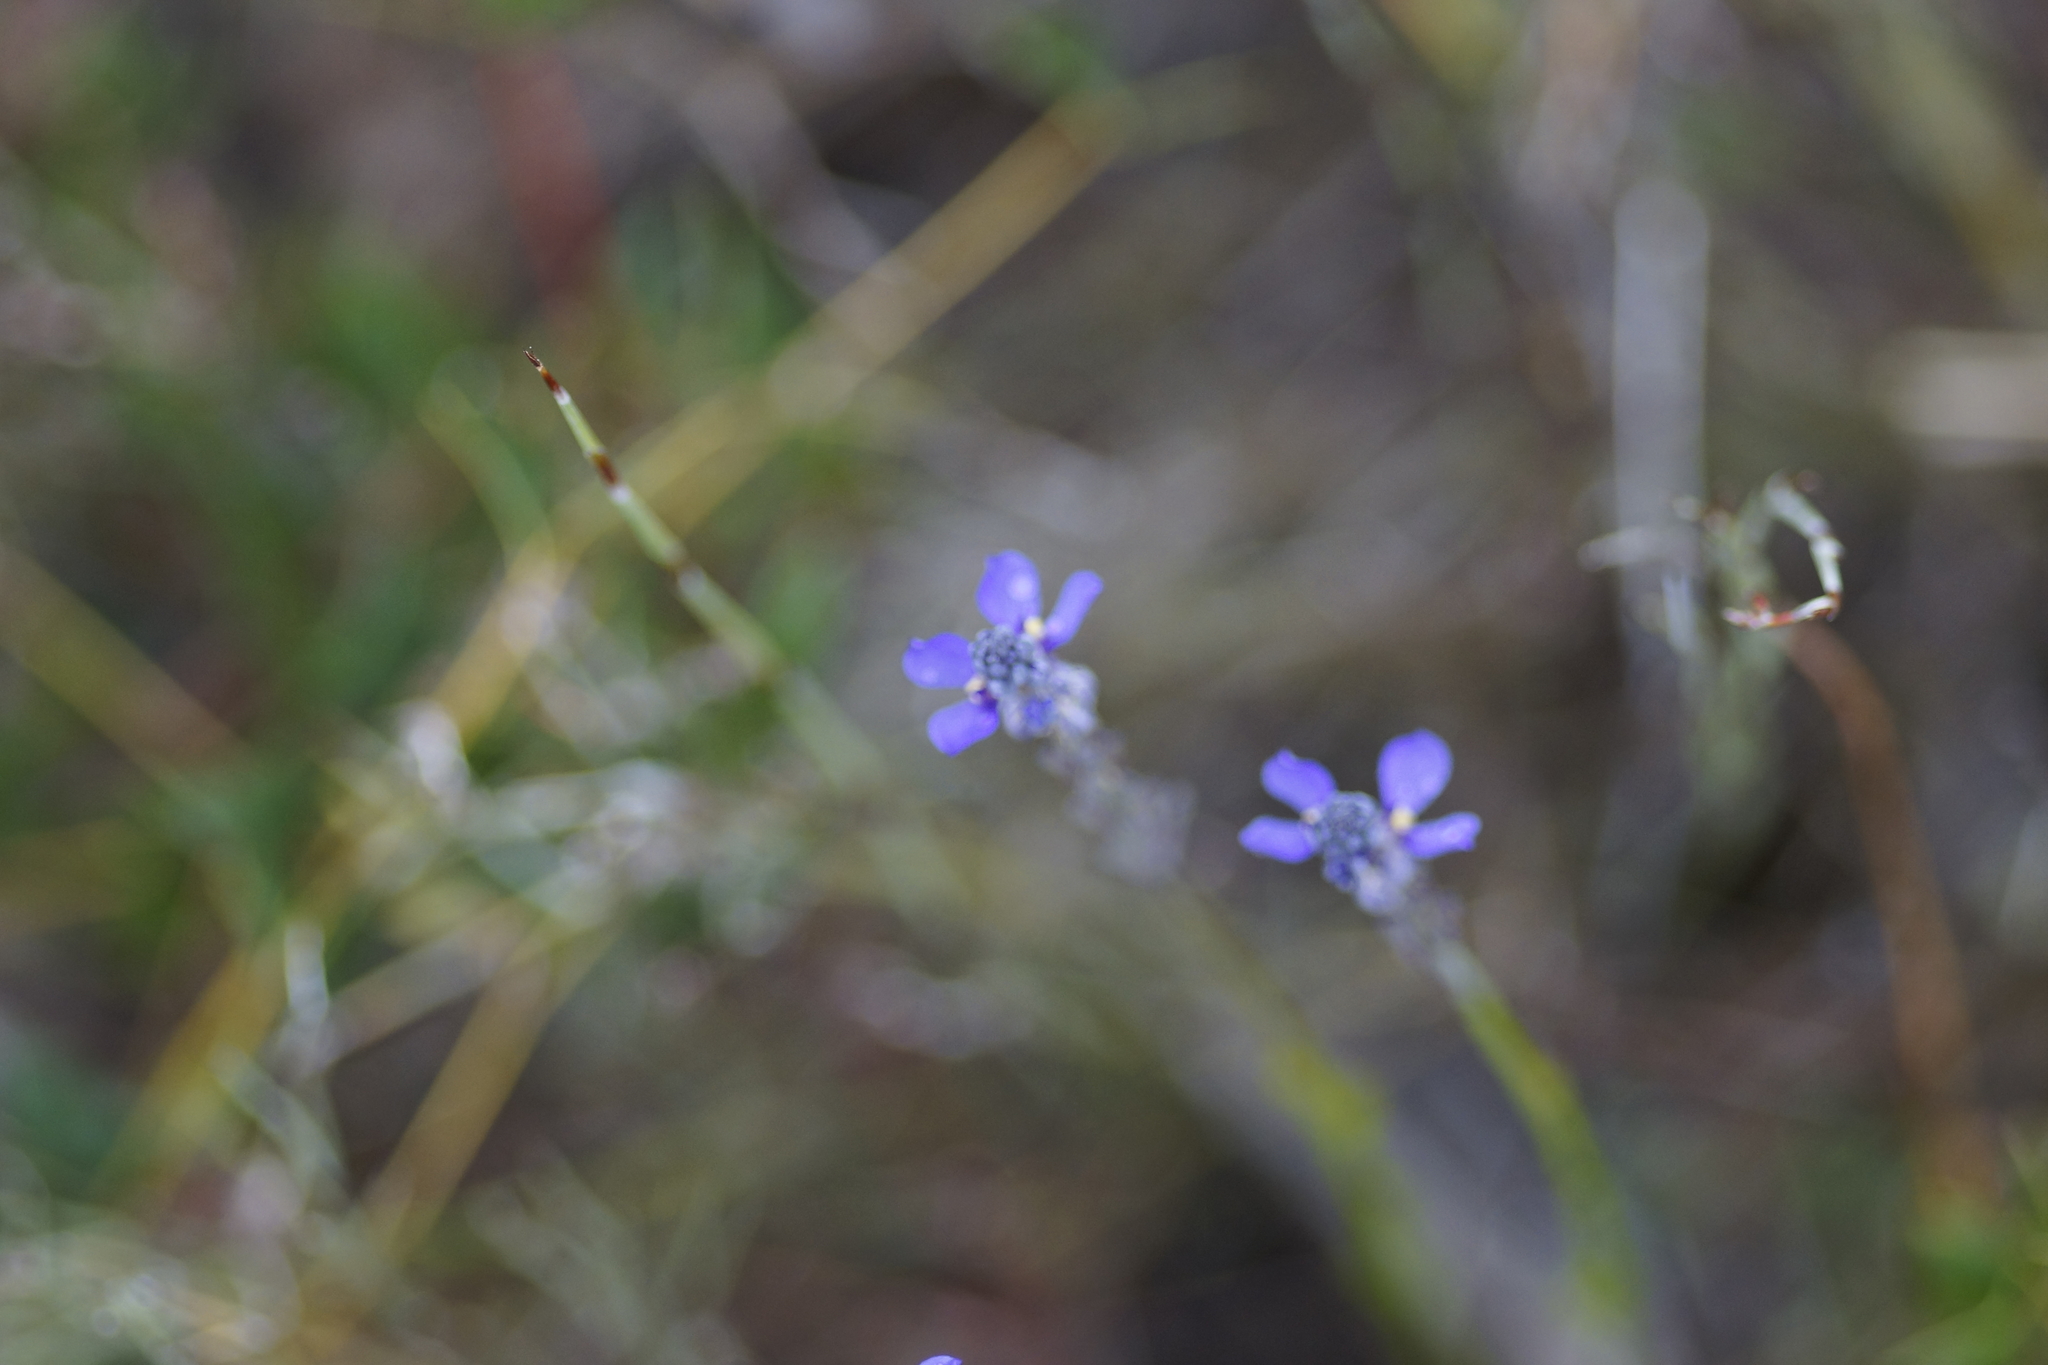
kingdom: Plantae
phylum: Tracheophyta
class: Magnoliopsida
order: Fabales
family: Polygalaceae
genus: Comesperma
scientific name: Comesperma calymega
